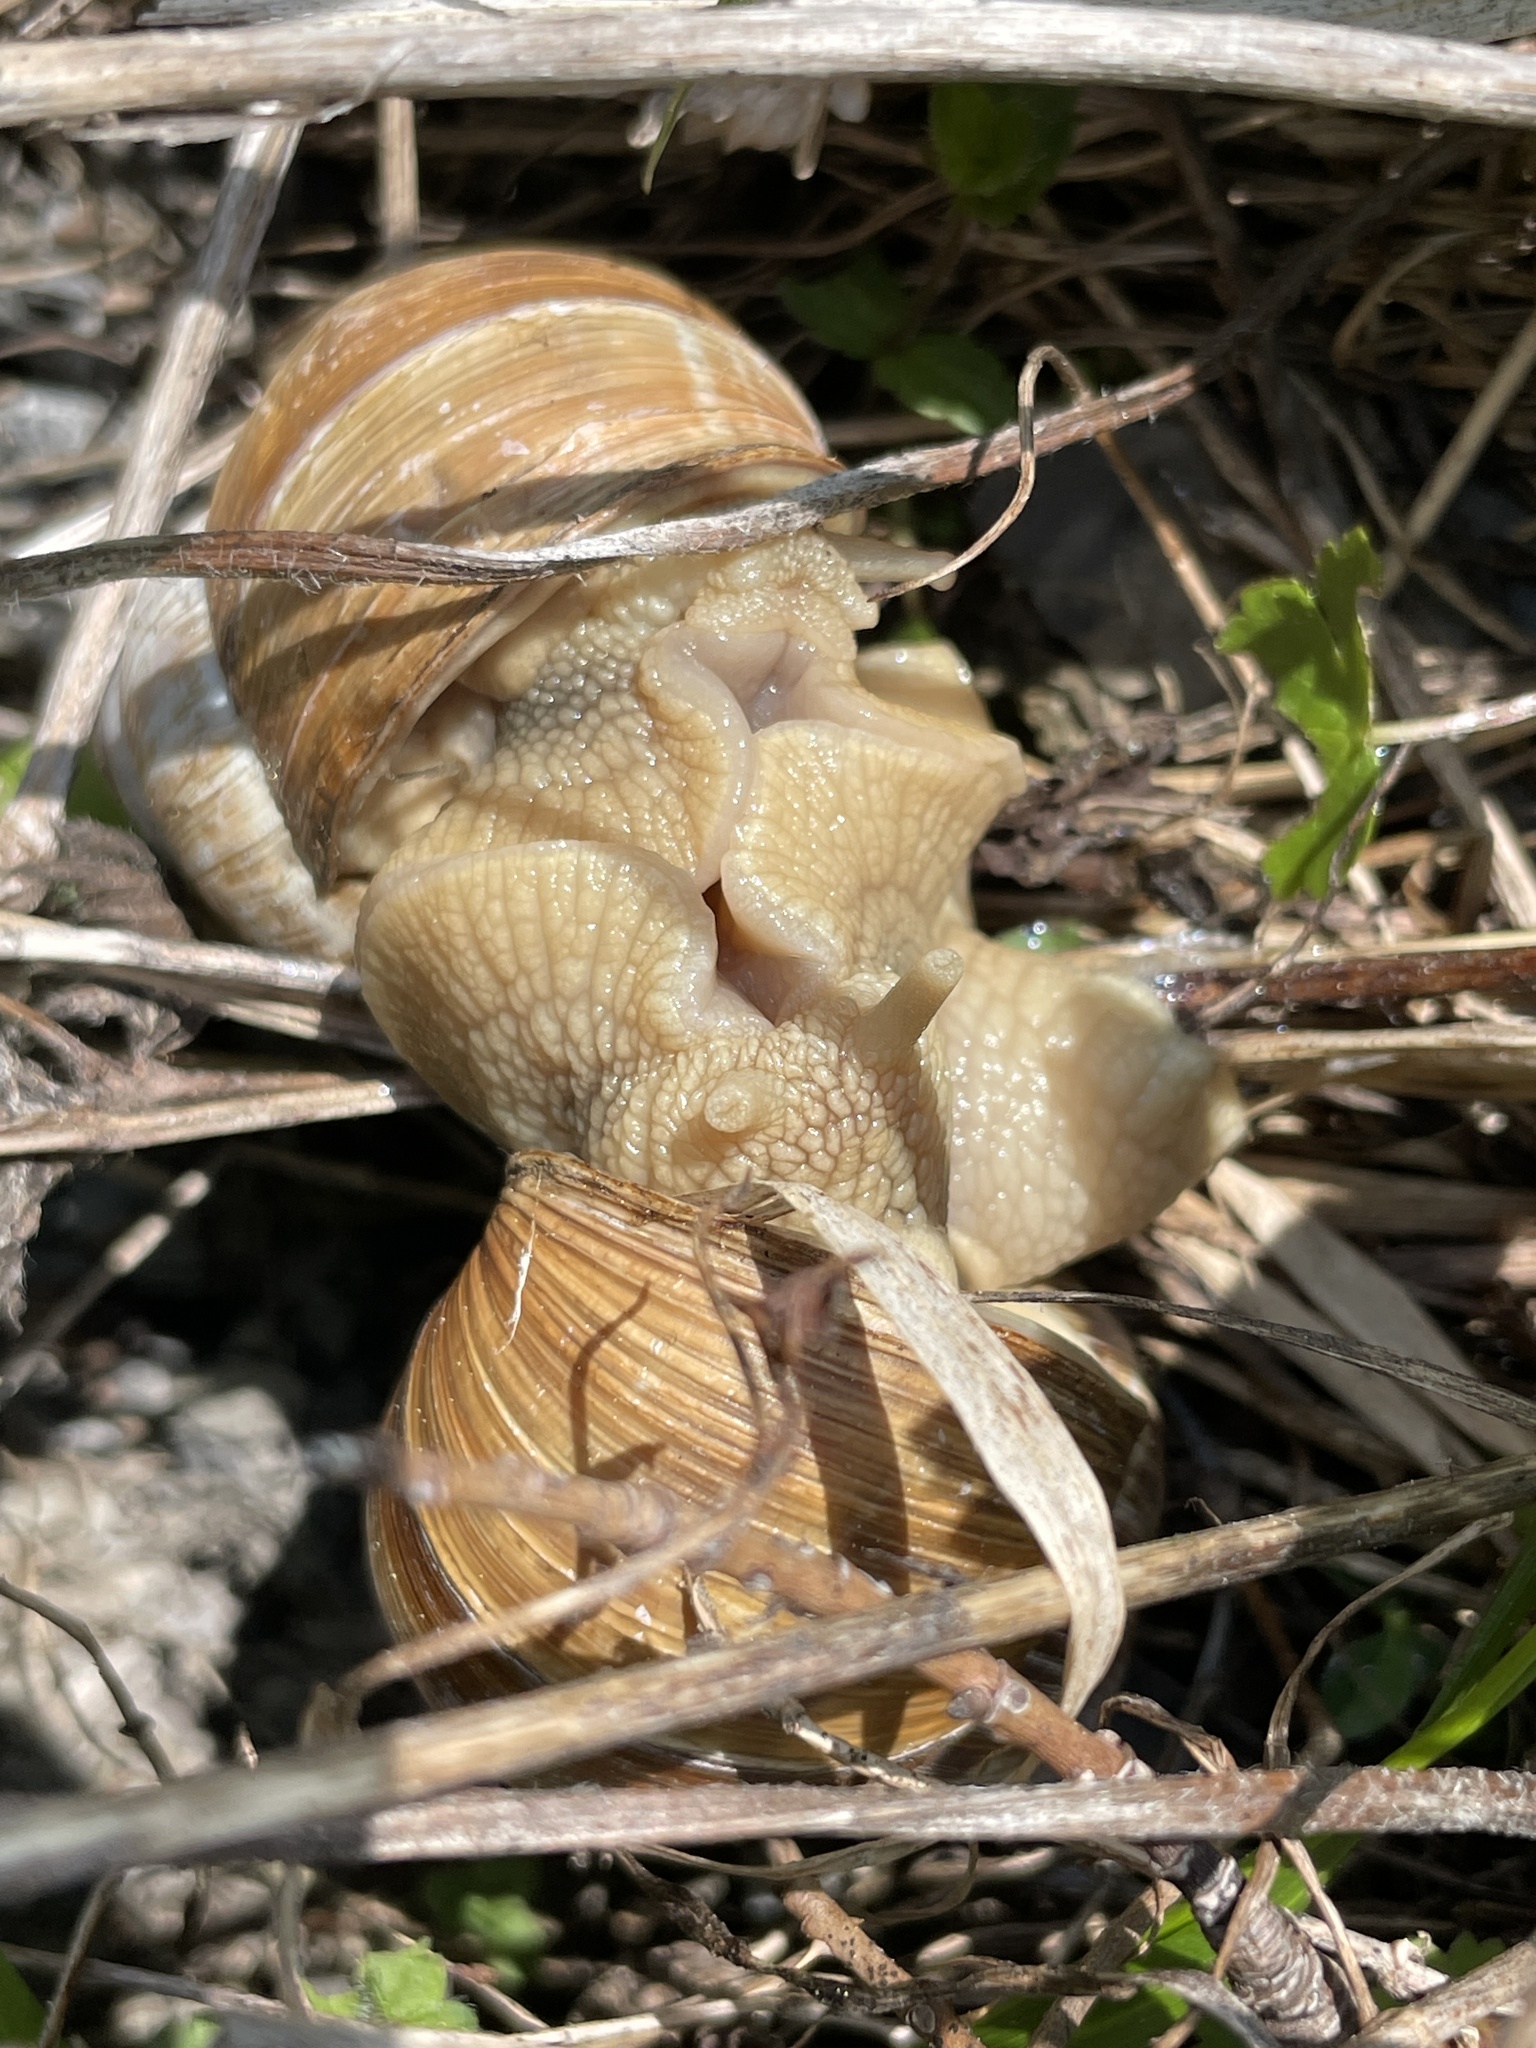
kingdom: Animalia
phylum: Mollusca
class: Gastropoda
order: Stylommatophora
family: Helicidae
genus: Helix
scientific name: Helix pomatia
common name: Roman snail
